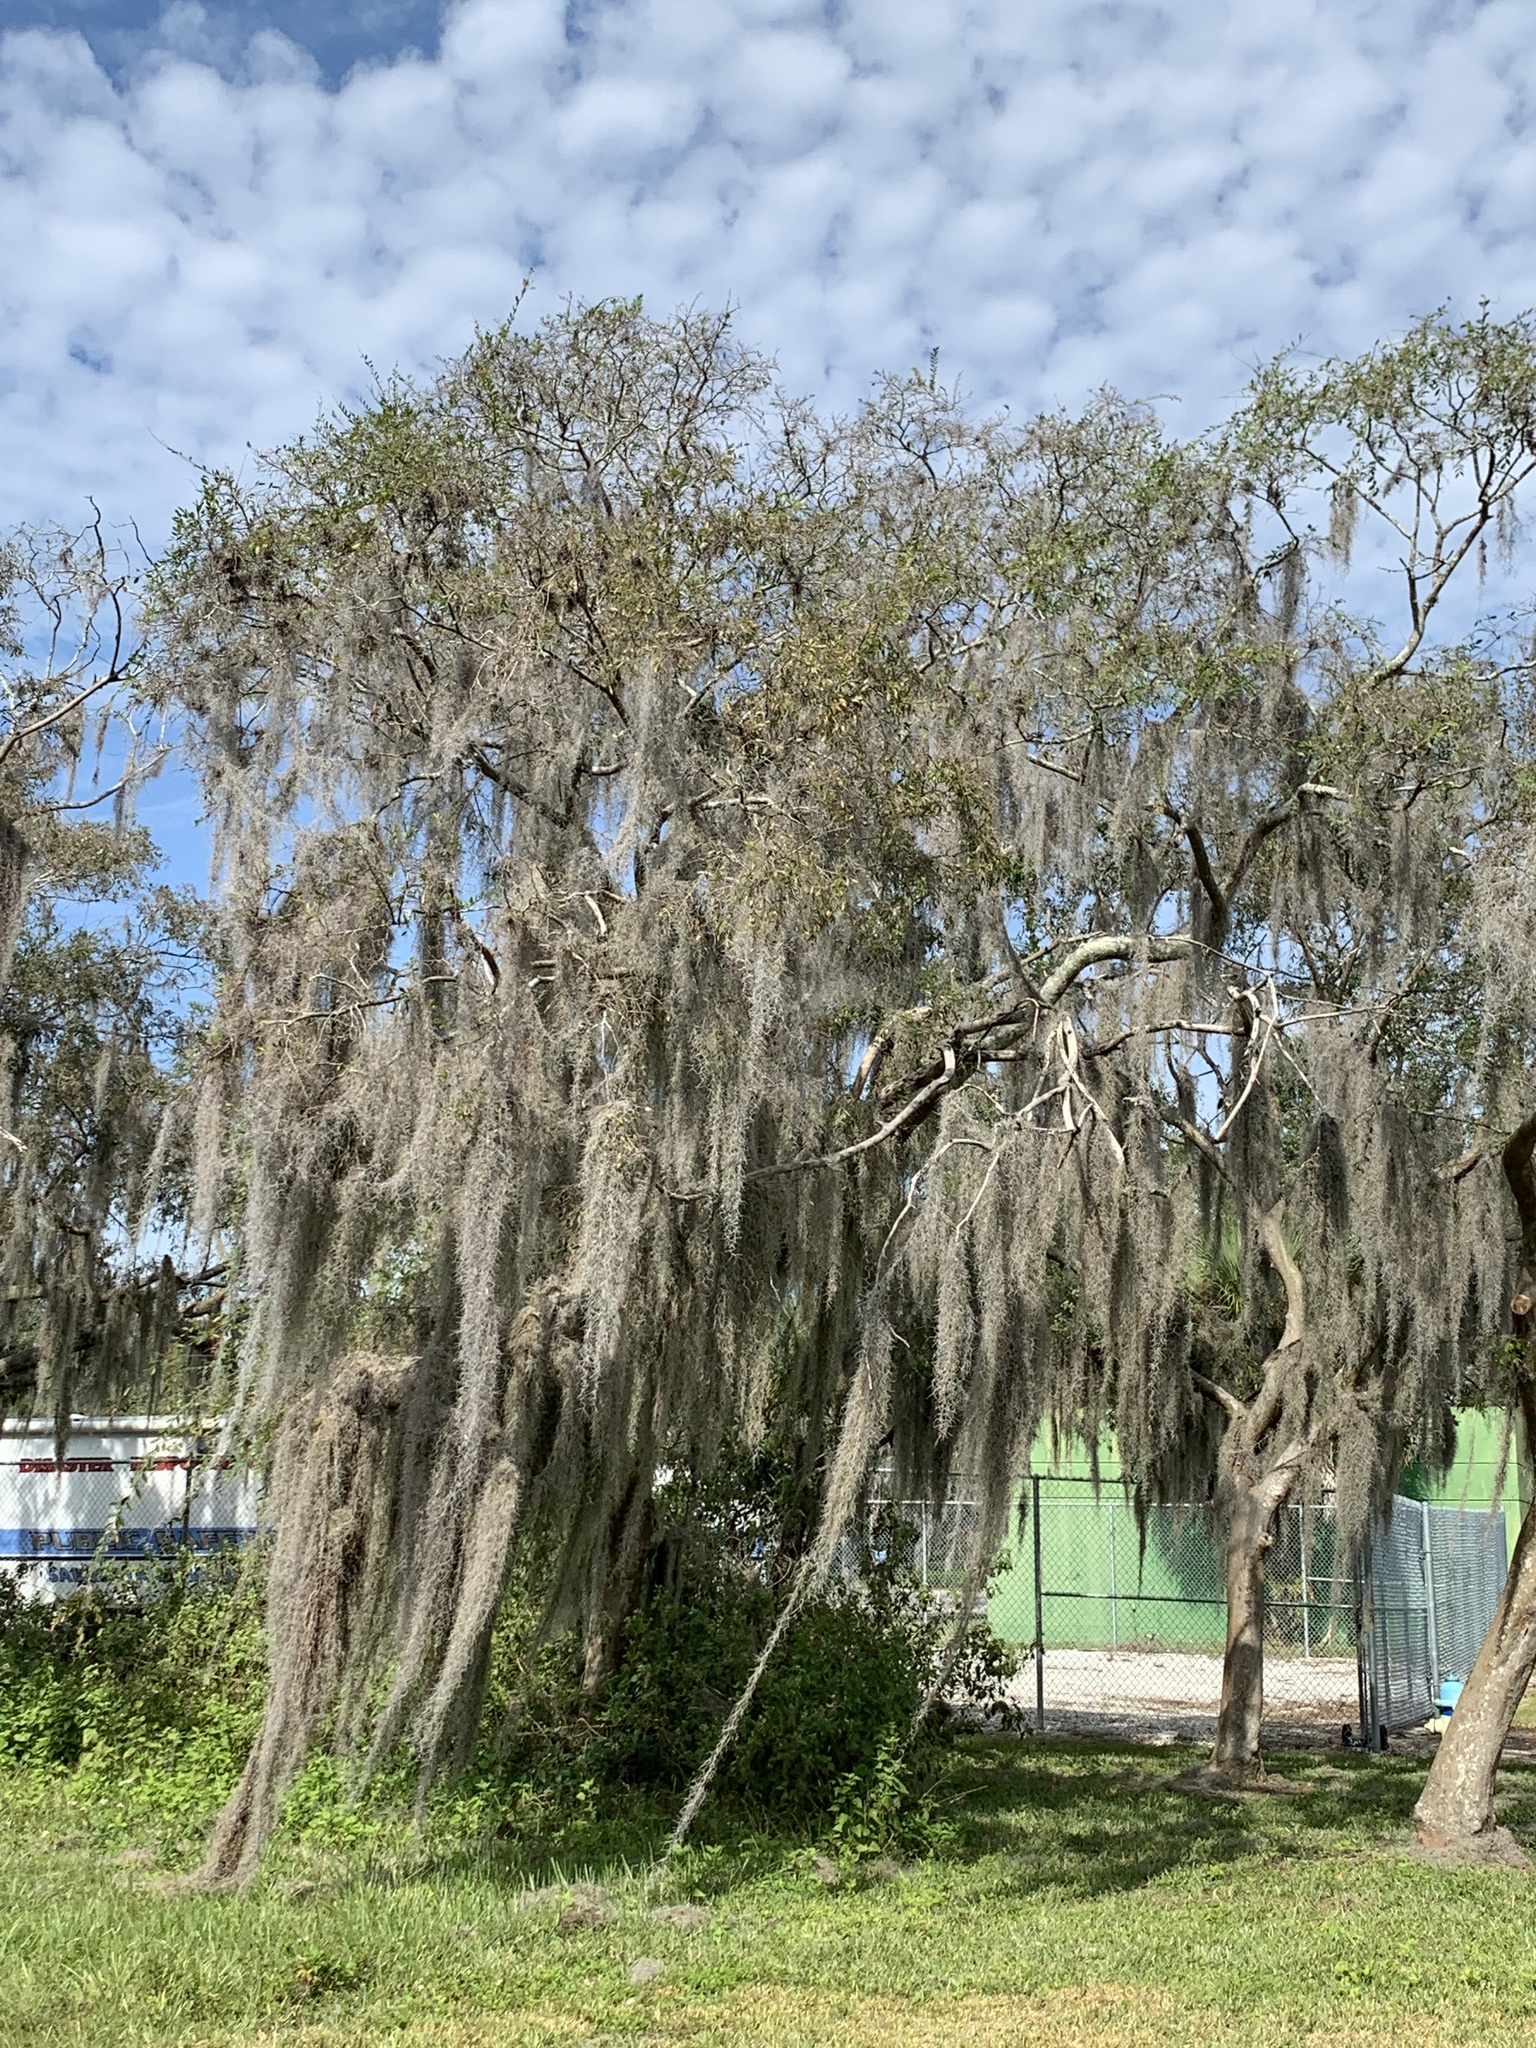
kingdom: Plantae
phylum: Tracheophyta
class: Liliopsida
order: Poales
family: Bromeliaceae
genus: Tillandsia
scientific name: Tillandsia usneoides
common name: Spanish moss
